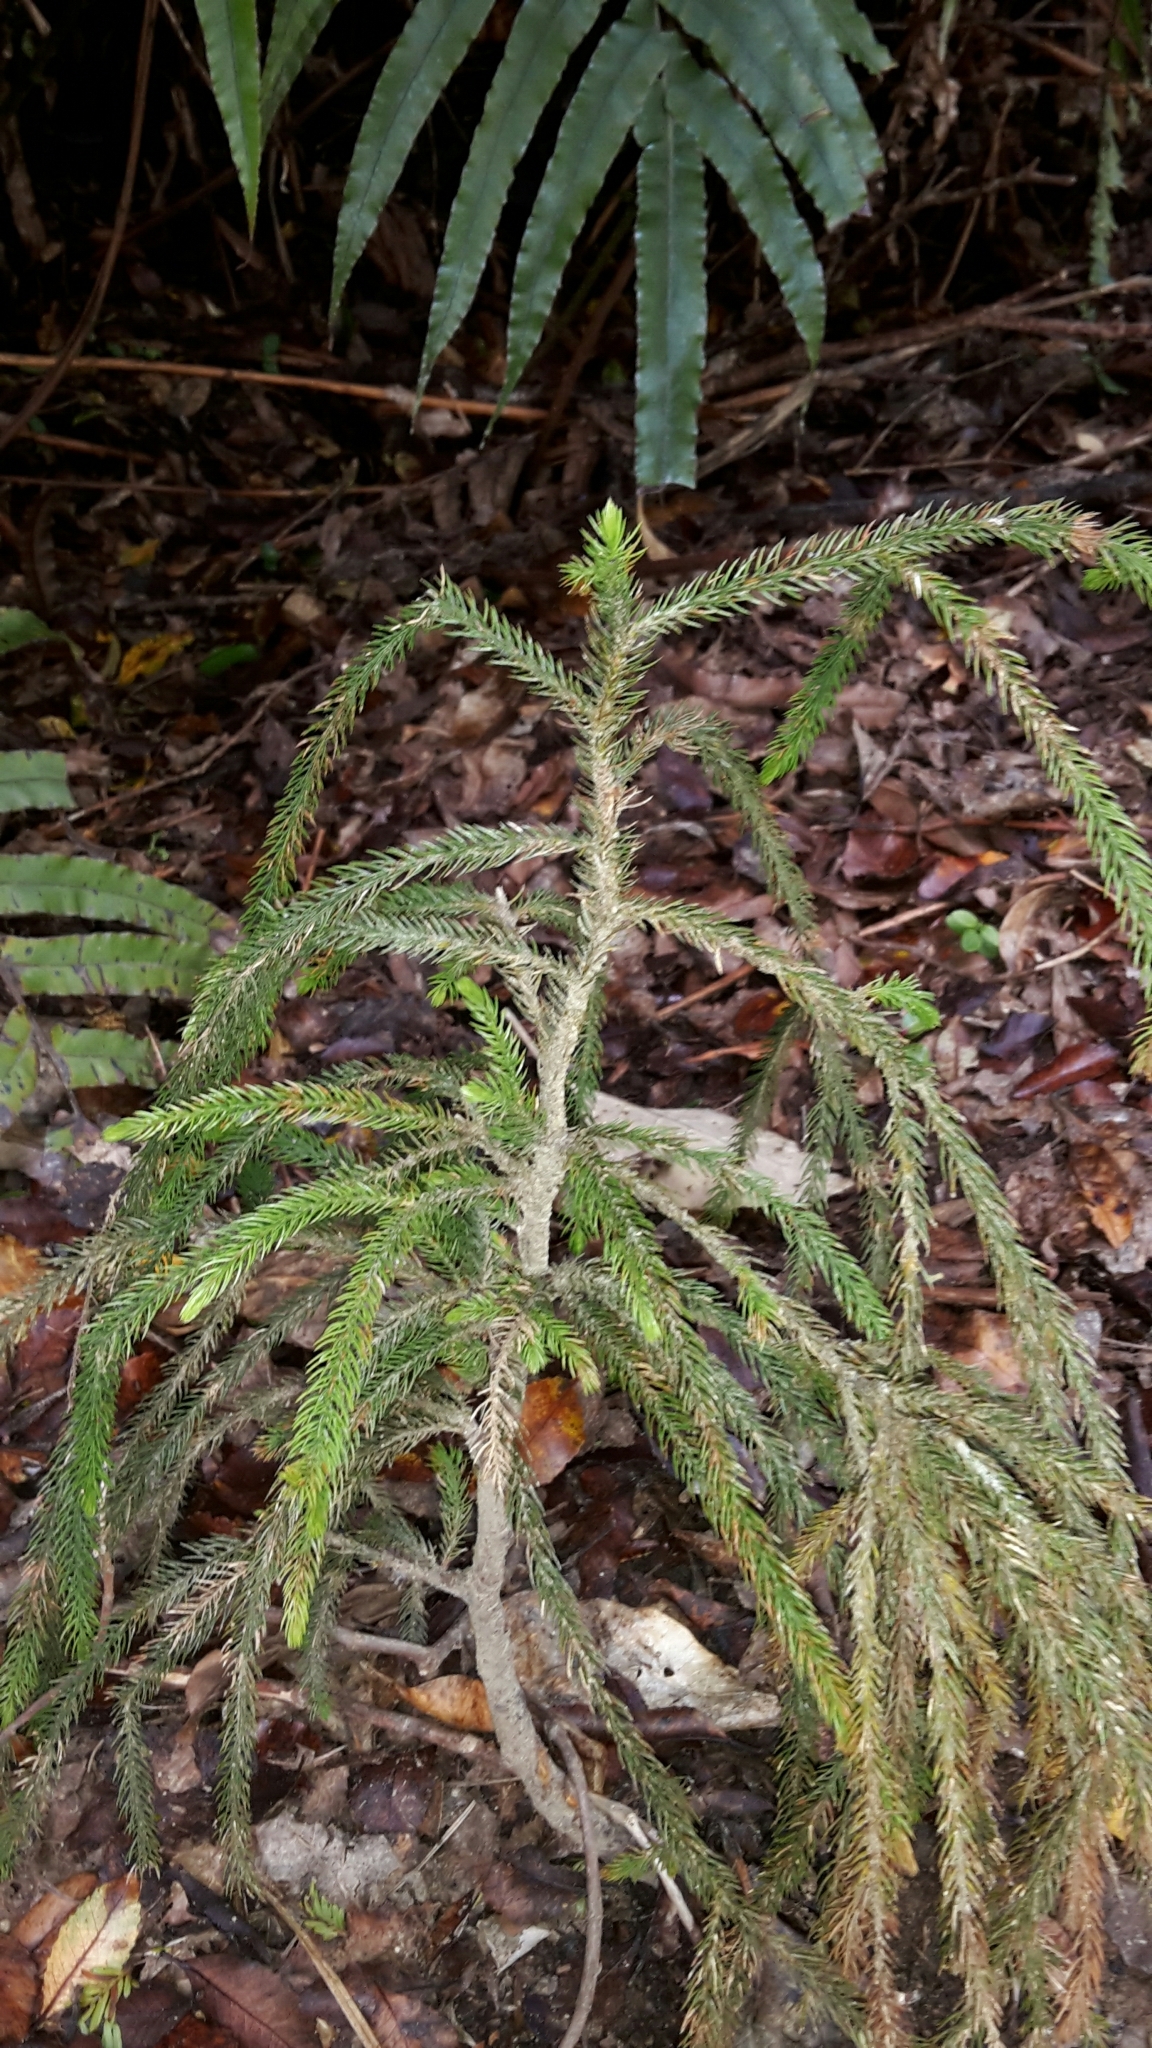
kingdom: Plantae
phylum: Tracheophyta
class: Pinopsida
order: Pinales
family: Podocarpaceae
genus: Dacrydium
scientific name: Dacrydium cupressinum
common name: Red pine
